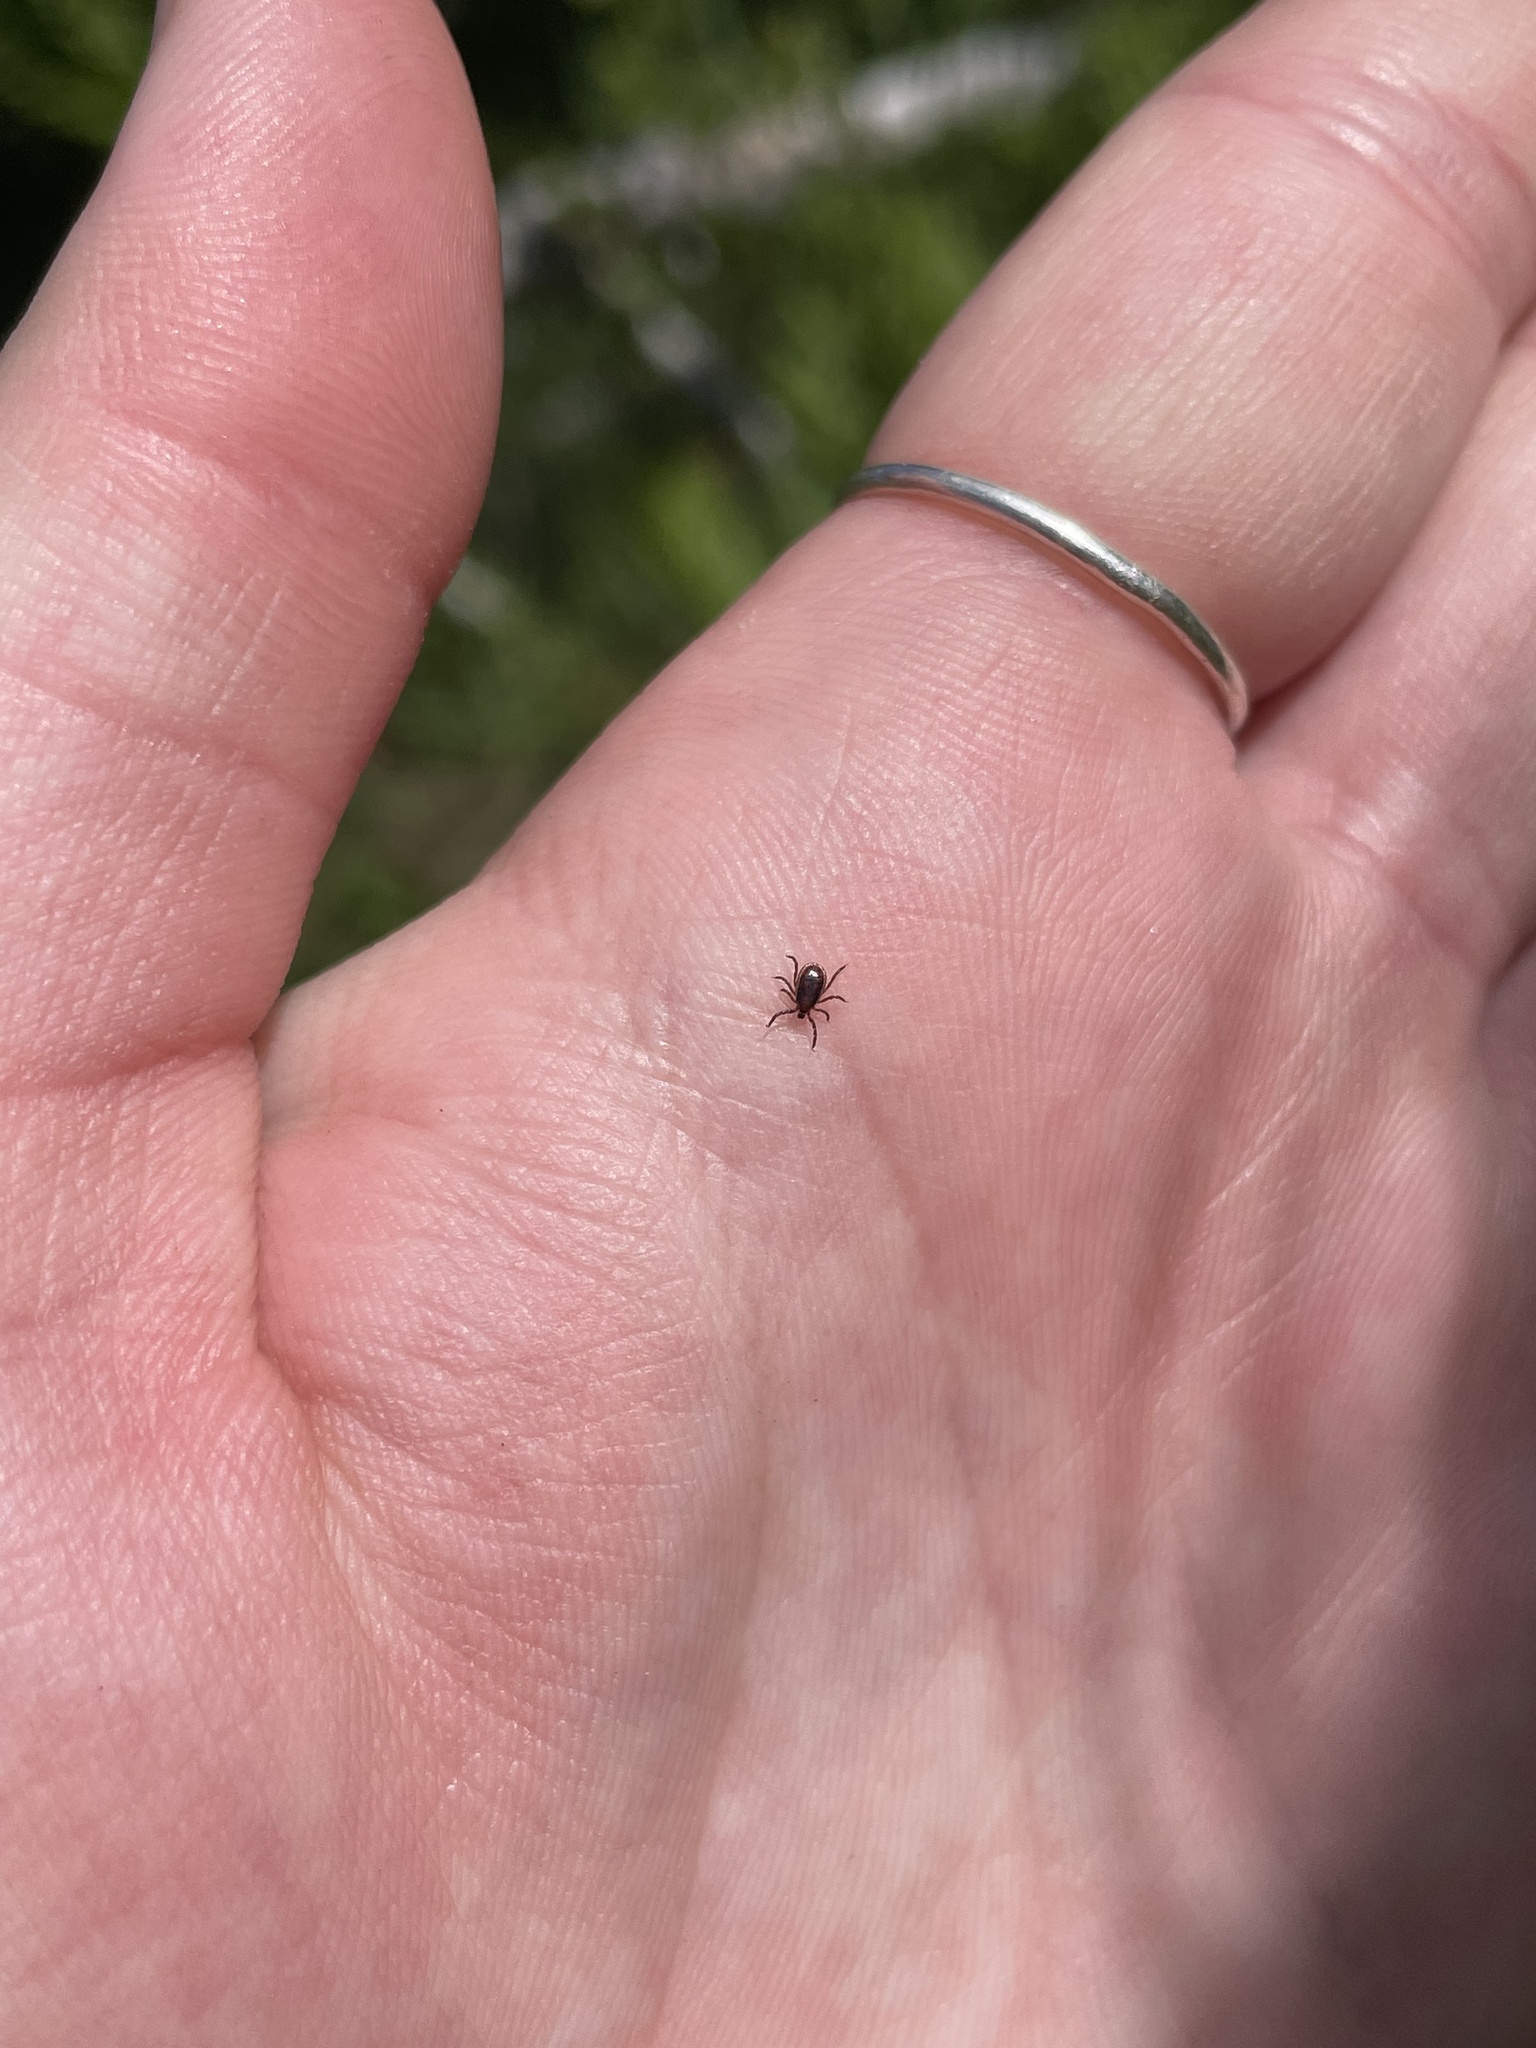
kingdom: Animalia
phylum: Arthropoda
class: Arachnida
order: Ixodida
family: Ixodidae
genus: Ixodes
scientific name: Ixodes scapularis
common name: Black legged tick
